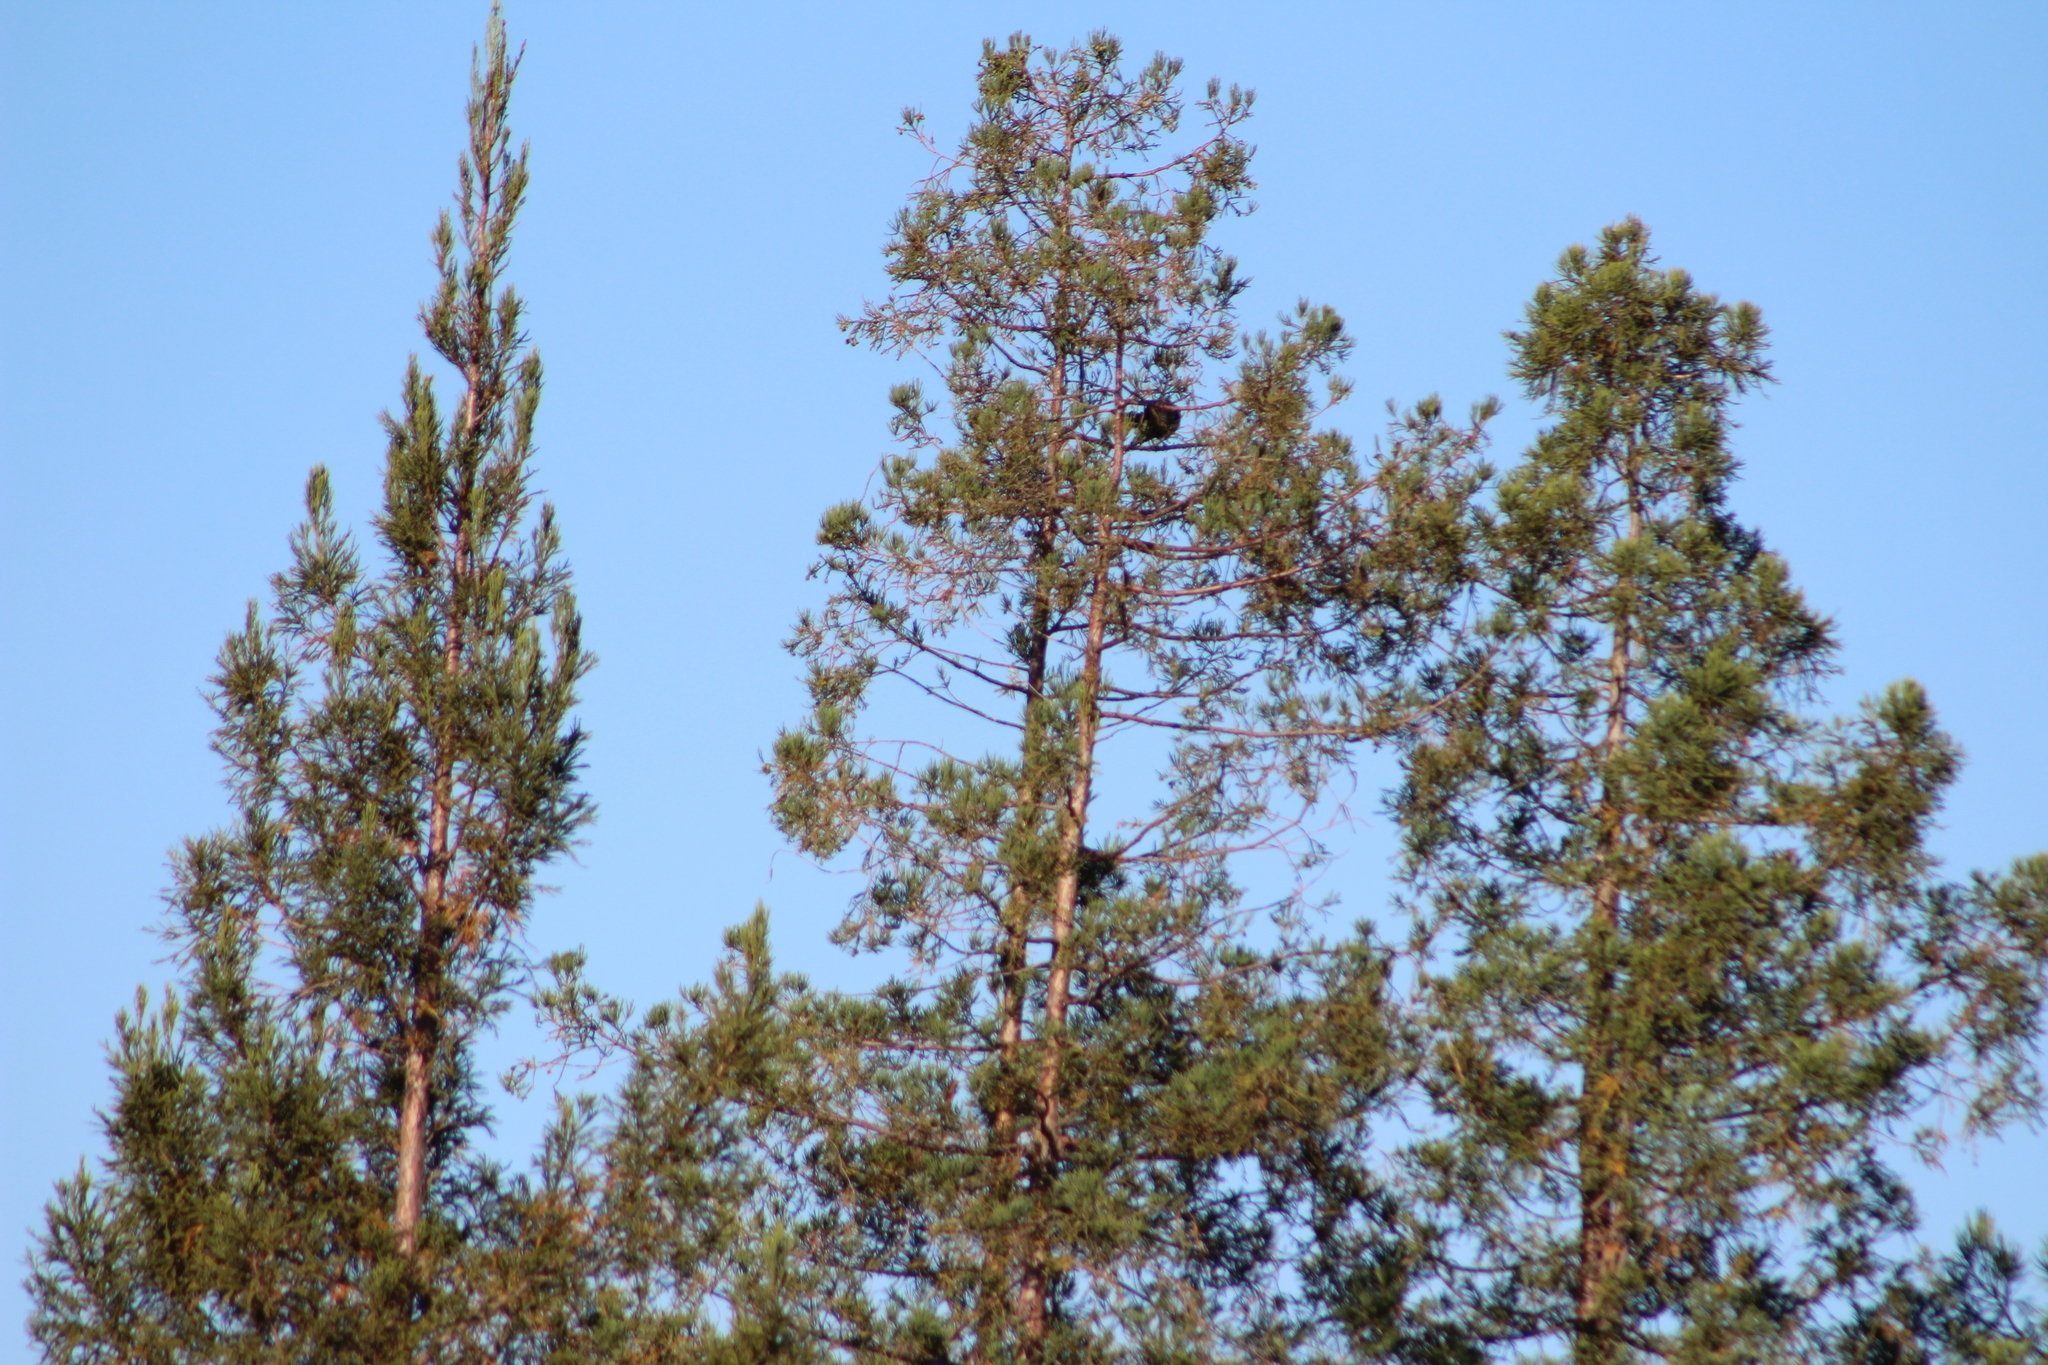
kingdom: Animalia
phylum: Chordata
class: Aves
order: Passeriformes
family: Corvidae
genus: Corvus
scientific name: Corvus brachyrhynchos
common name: American crow
